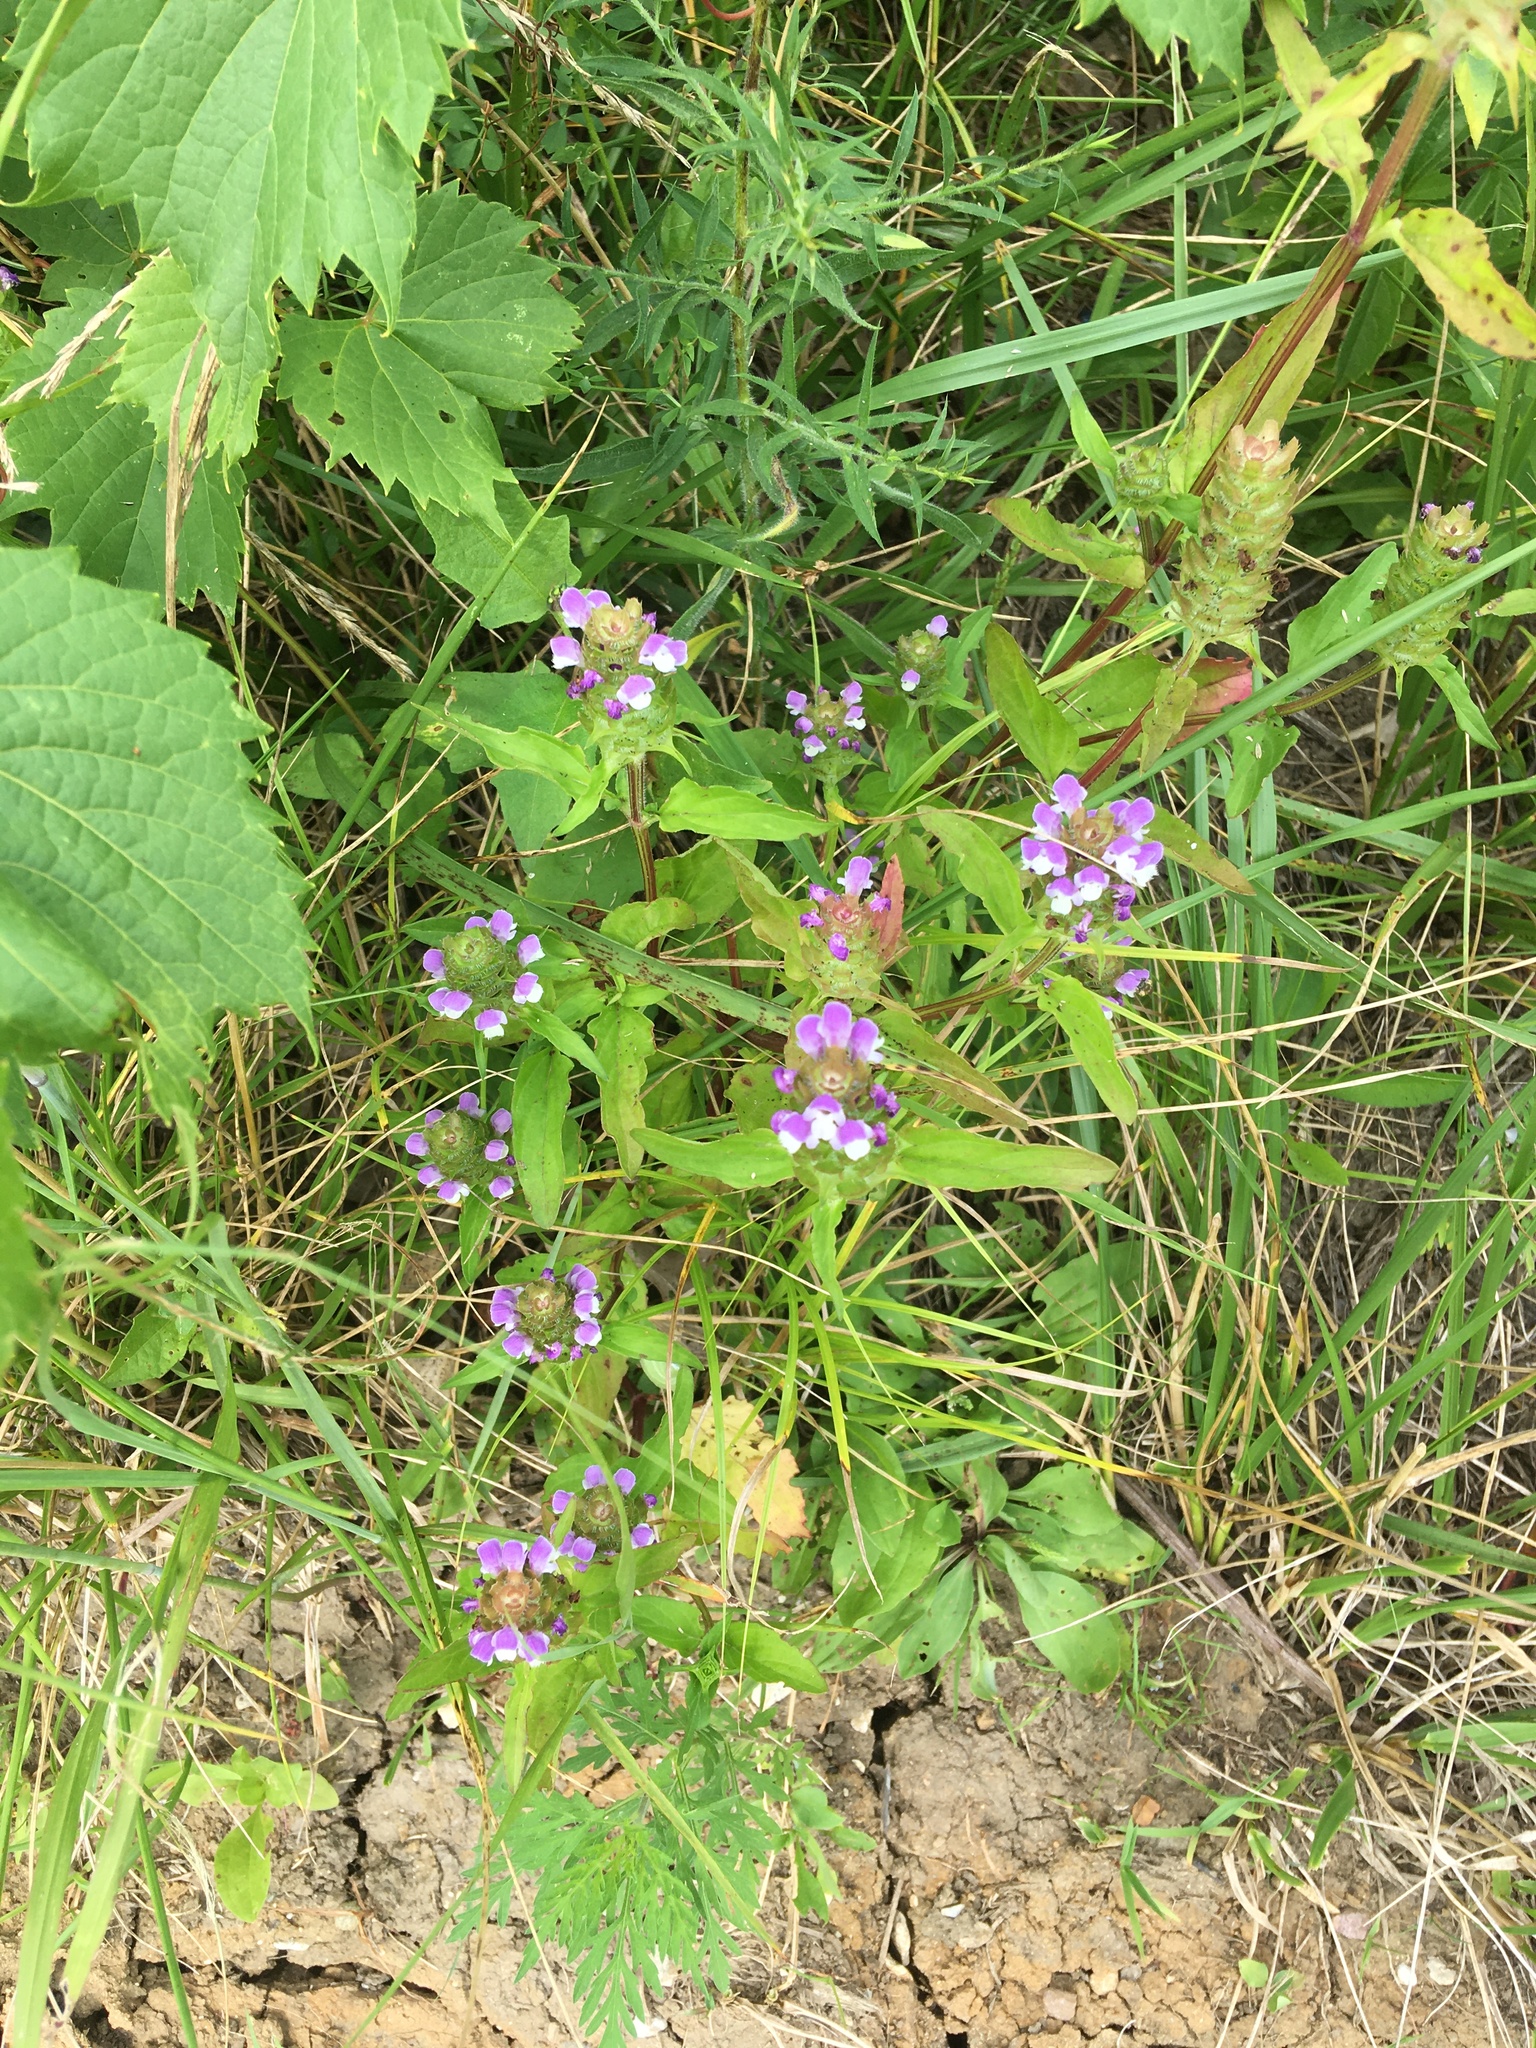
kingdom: Plantae
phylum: Tracheophyta
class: Magnoliopsida
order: Lamiales
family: Lamiaceae
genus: Prunella
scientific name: Prunella vulgaris
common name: Heal-all
